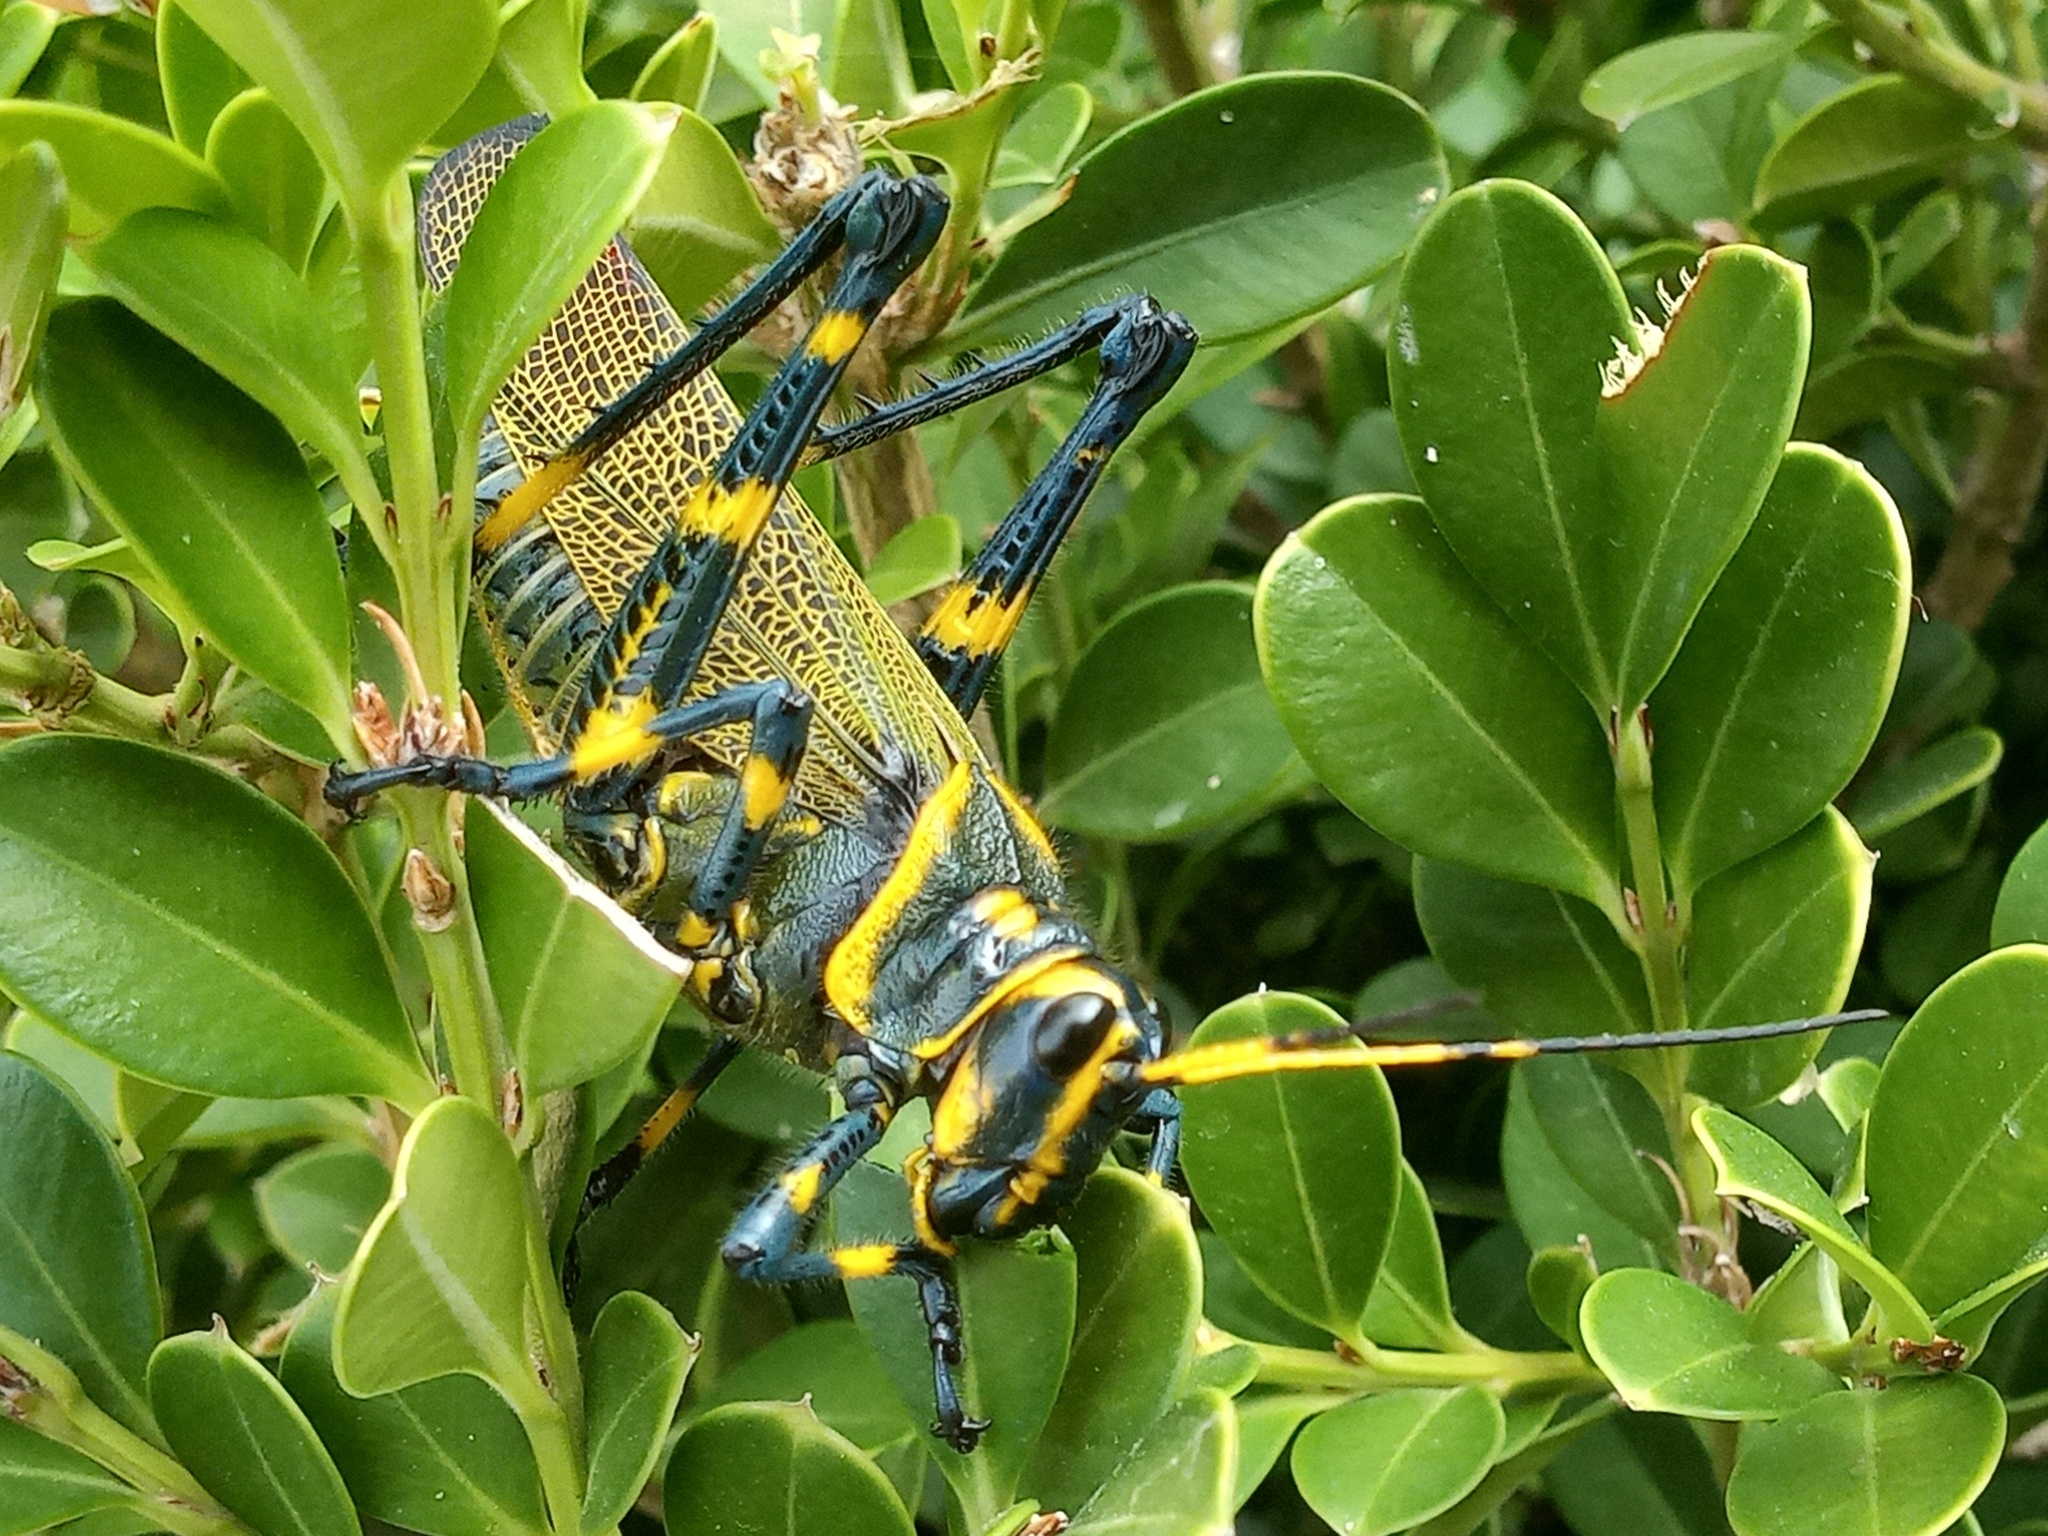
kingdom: Animalia
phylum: Arthropoda
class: Insecta
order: Orthoptera
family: Romaleidae
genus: Chromacris
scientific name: Chromacris colorata
